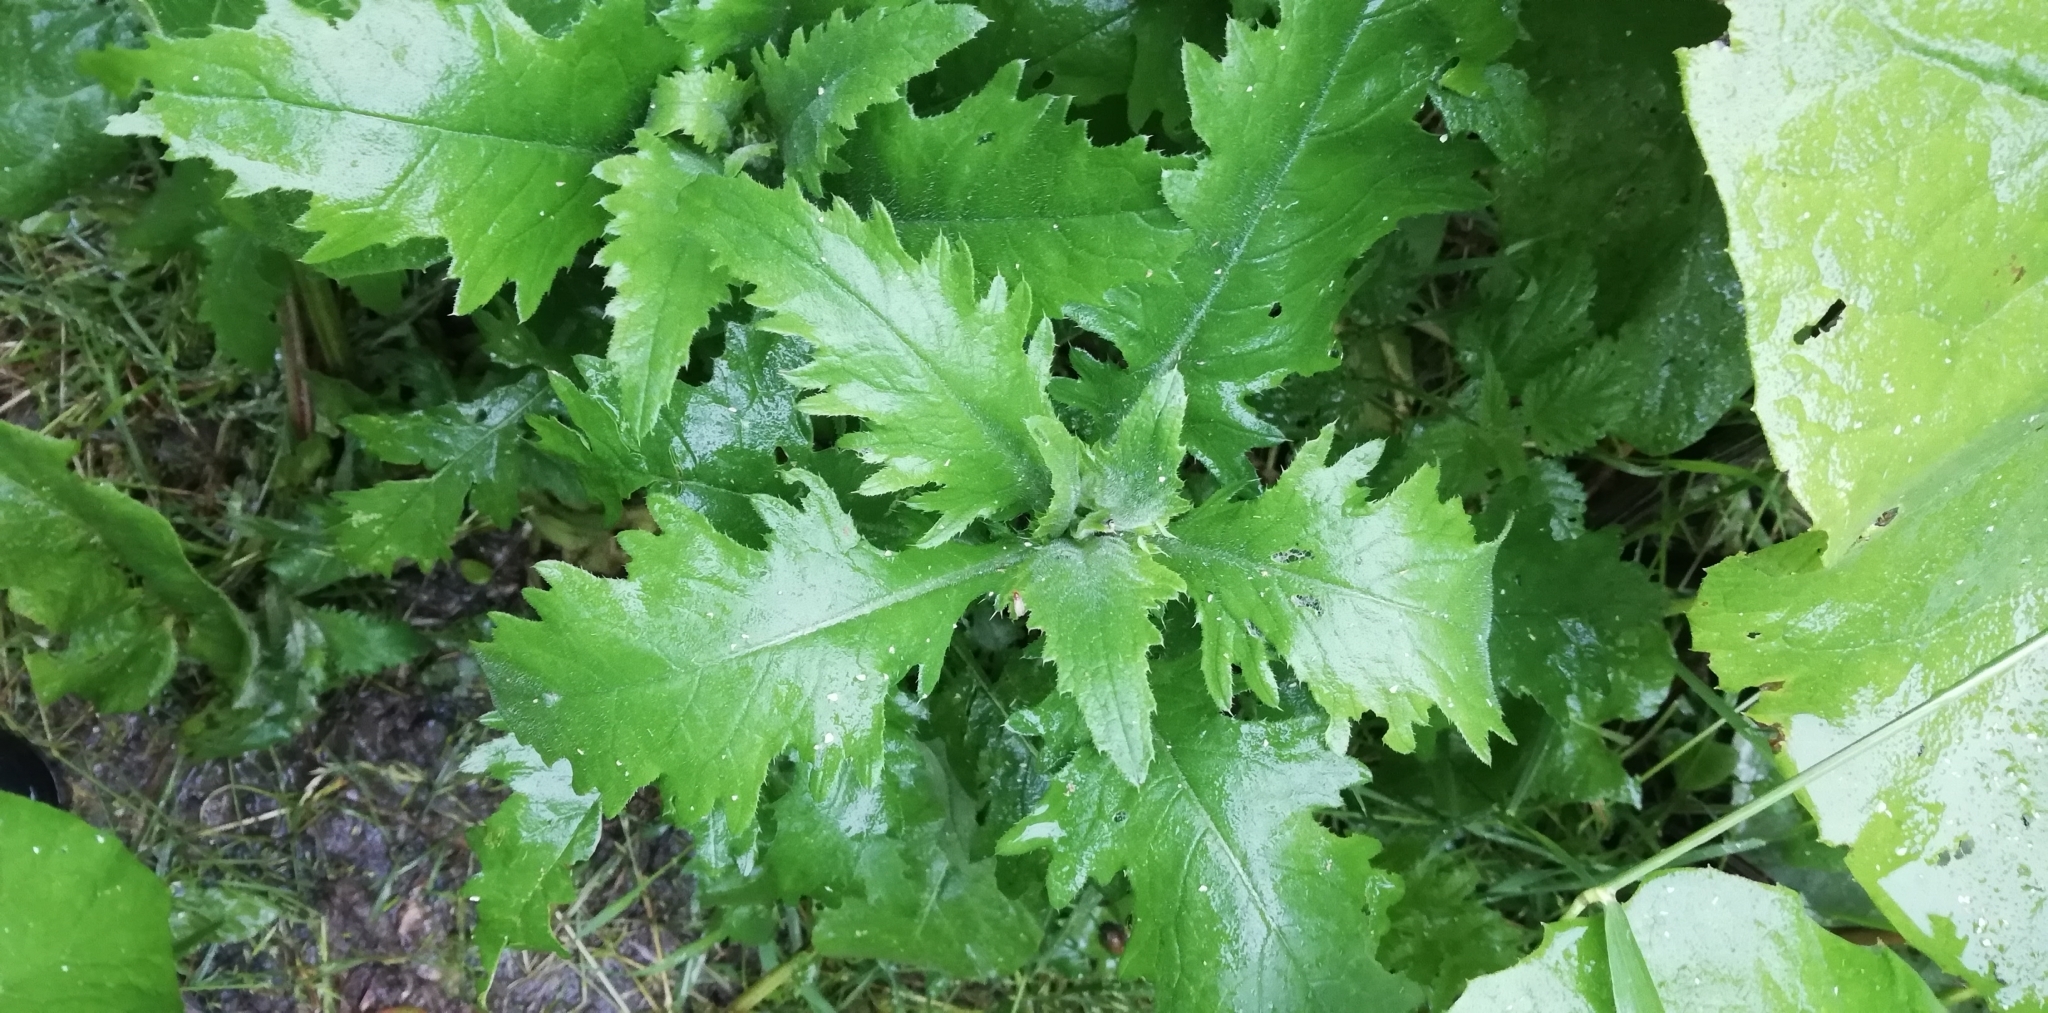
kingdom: Plantae
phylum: Tracheophyta
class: Magnoliopsida
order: Asterales
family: Asteraceae
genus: Carduus
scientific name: Carduus crispus
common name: Welted thistle
